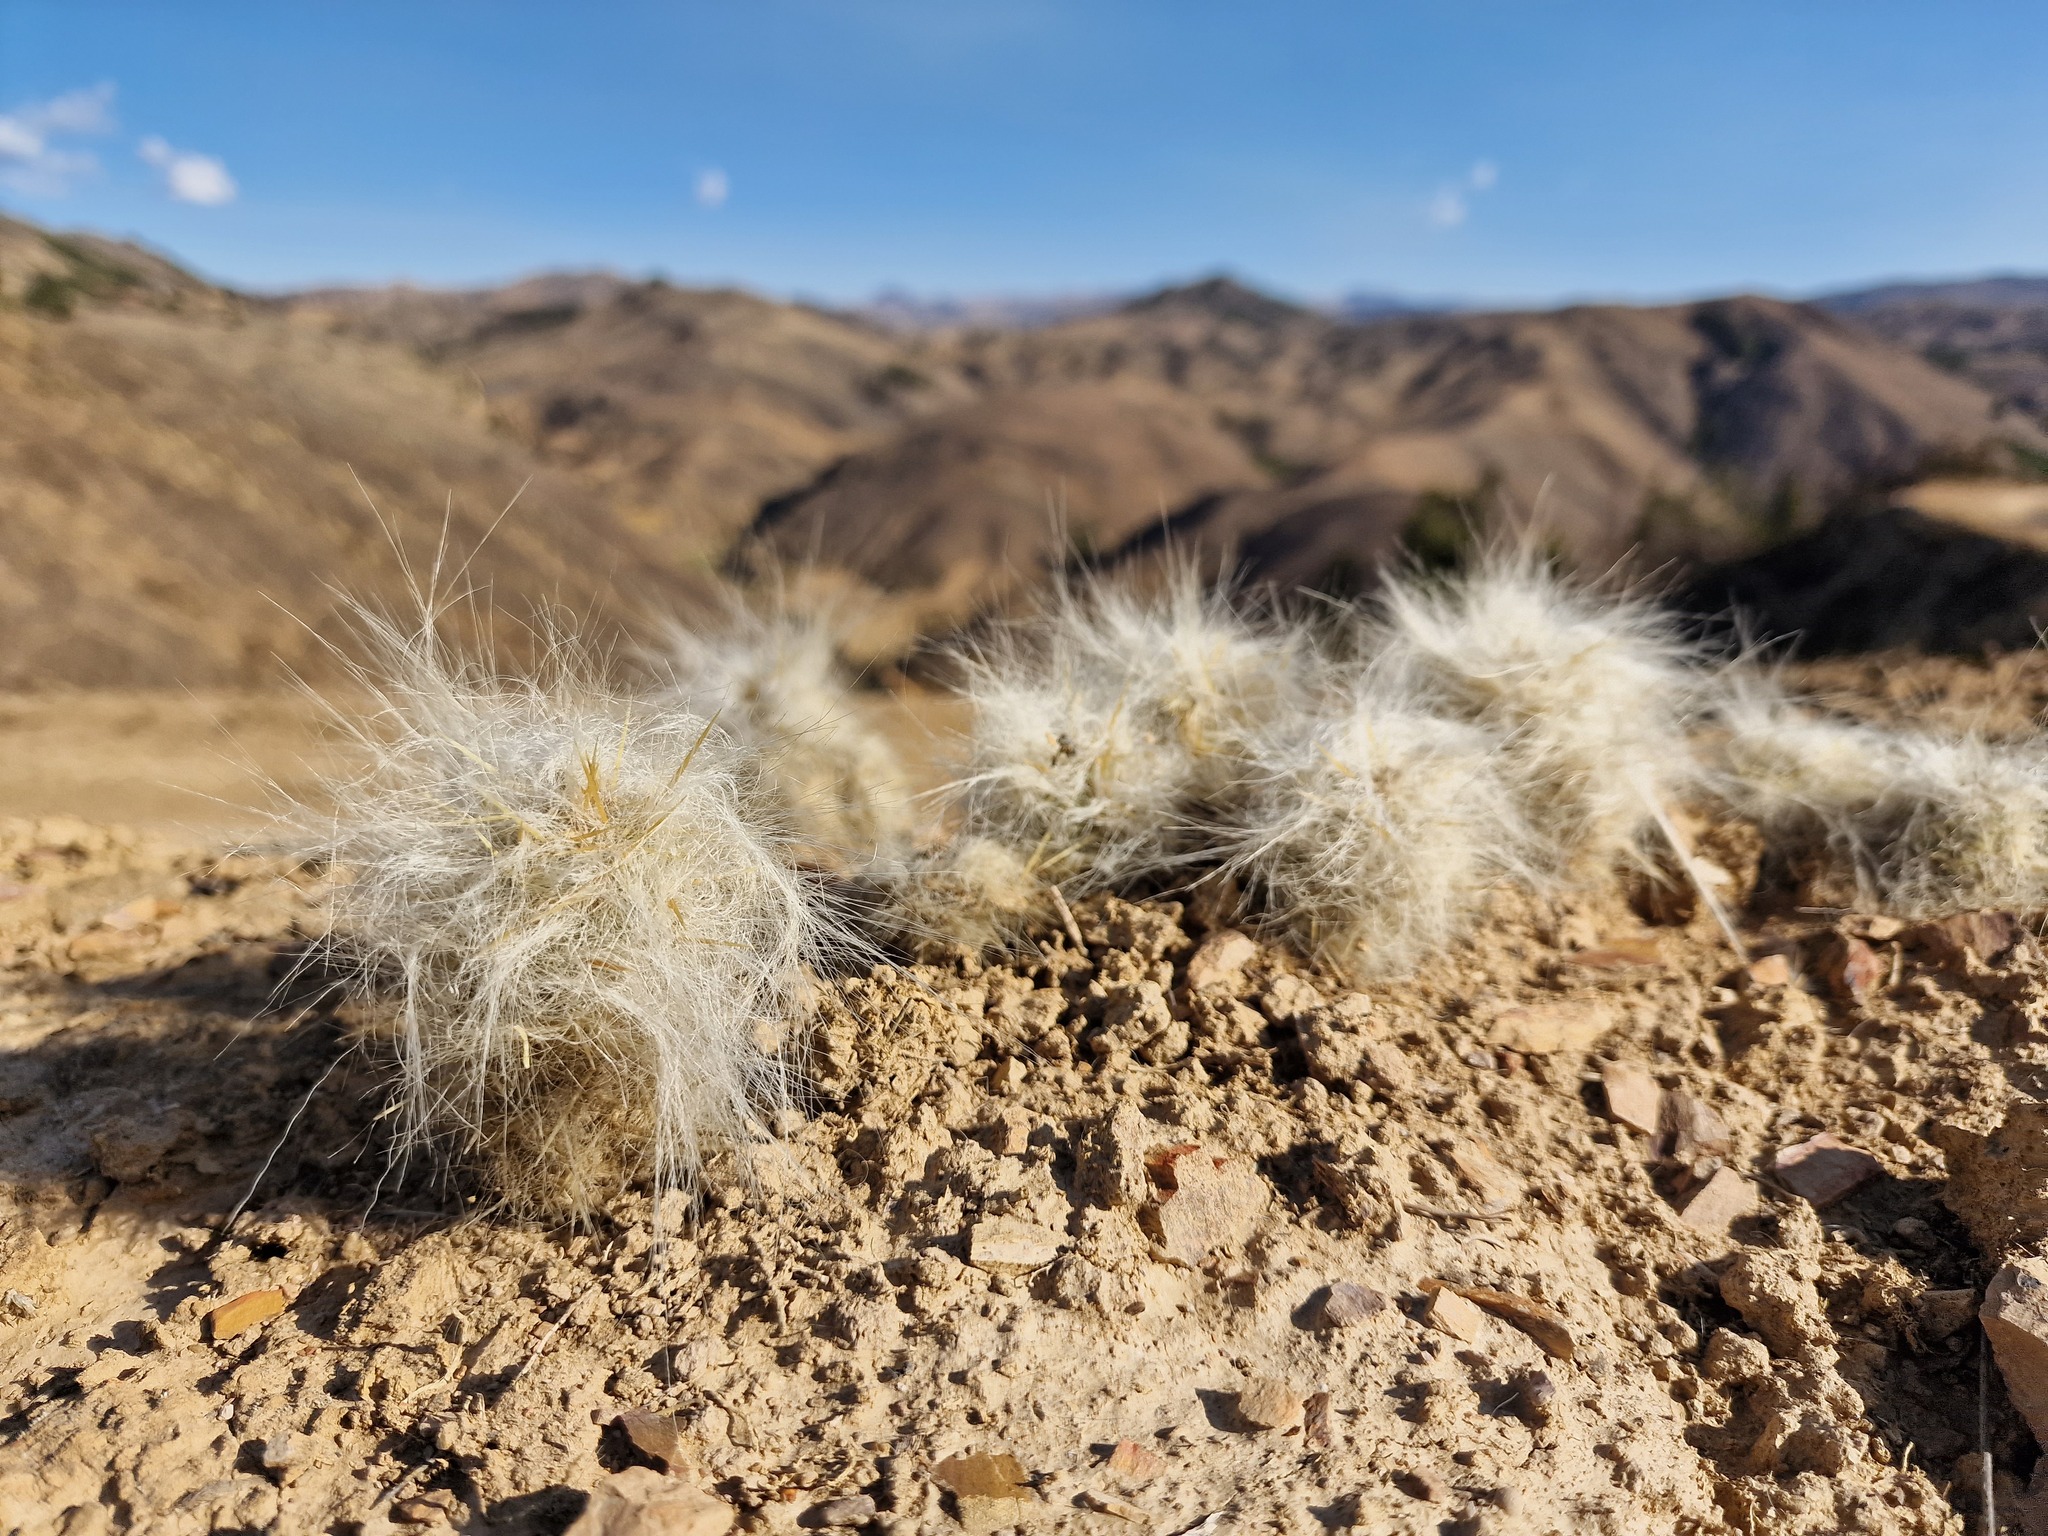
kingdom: Plantae
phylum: Tracheophyta
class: Magnoliopsida
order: Caryophyllales
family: Cactaceae
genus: Austrocylindropuntia
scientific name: Austrocylindropuntia floccosa
